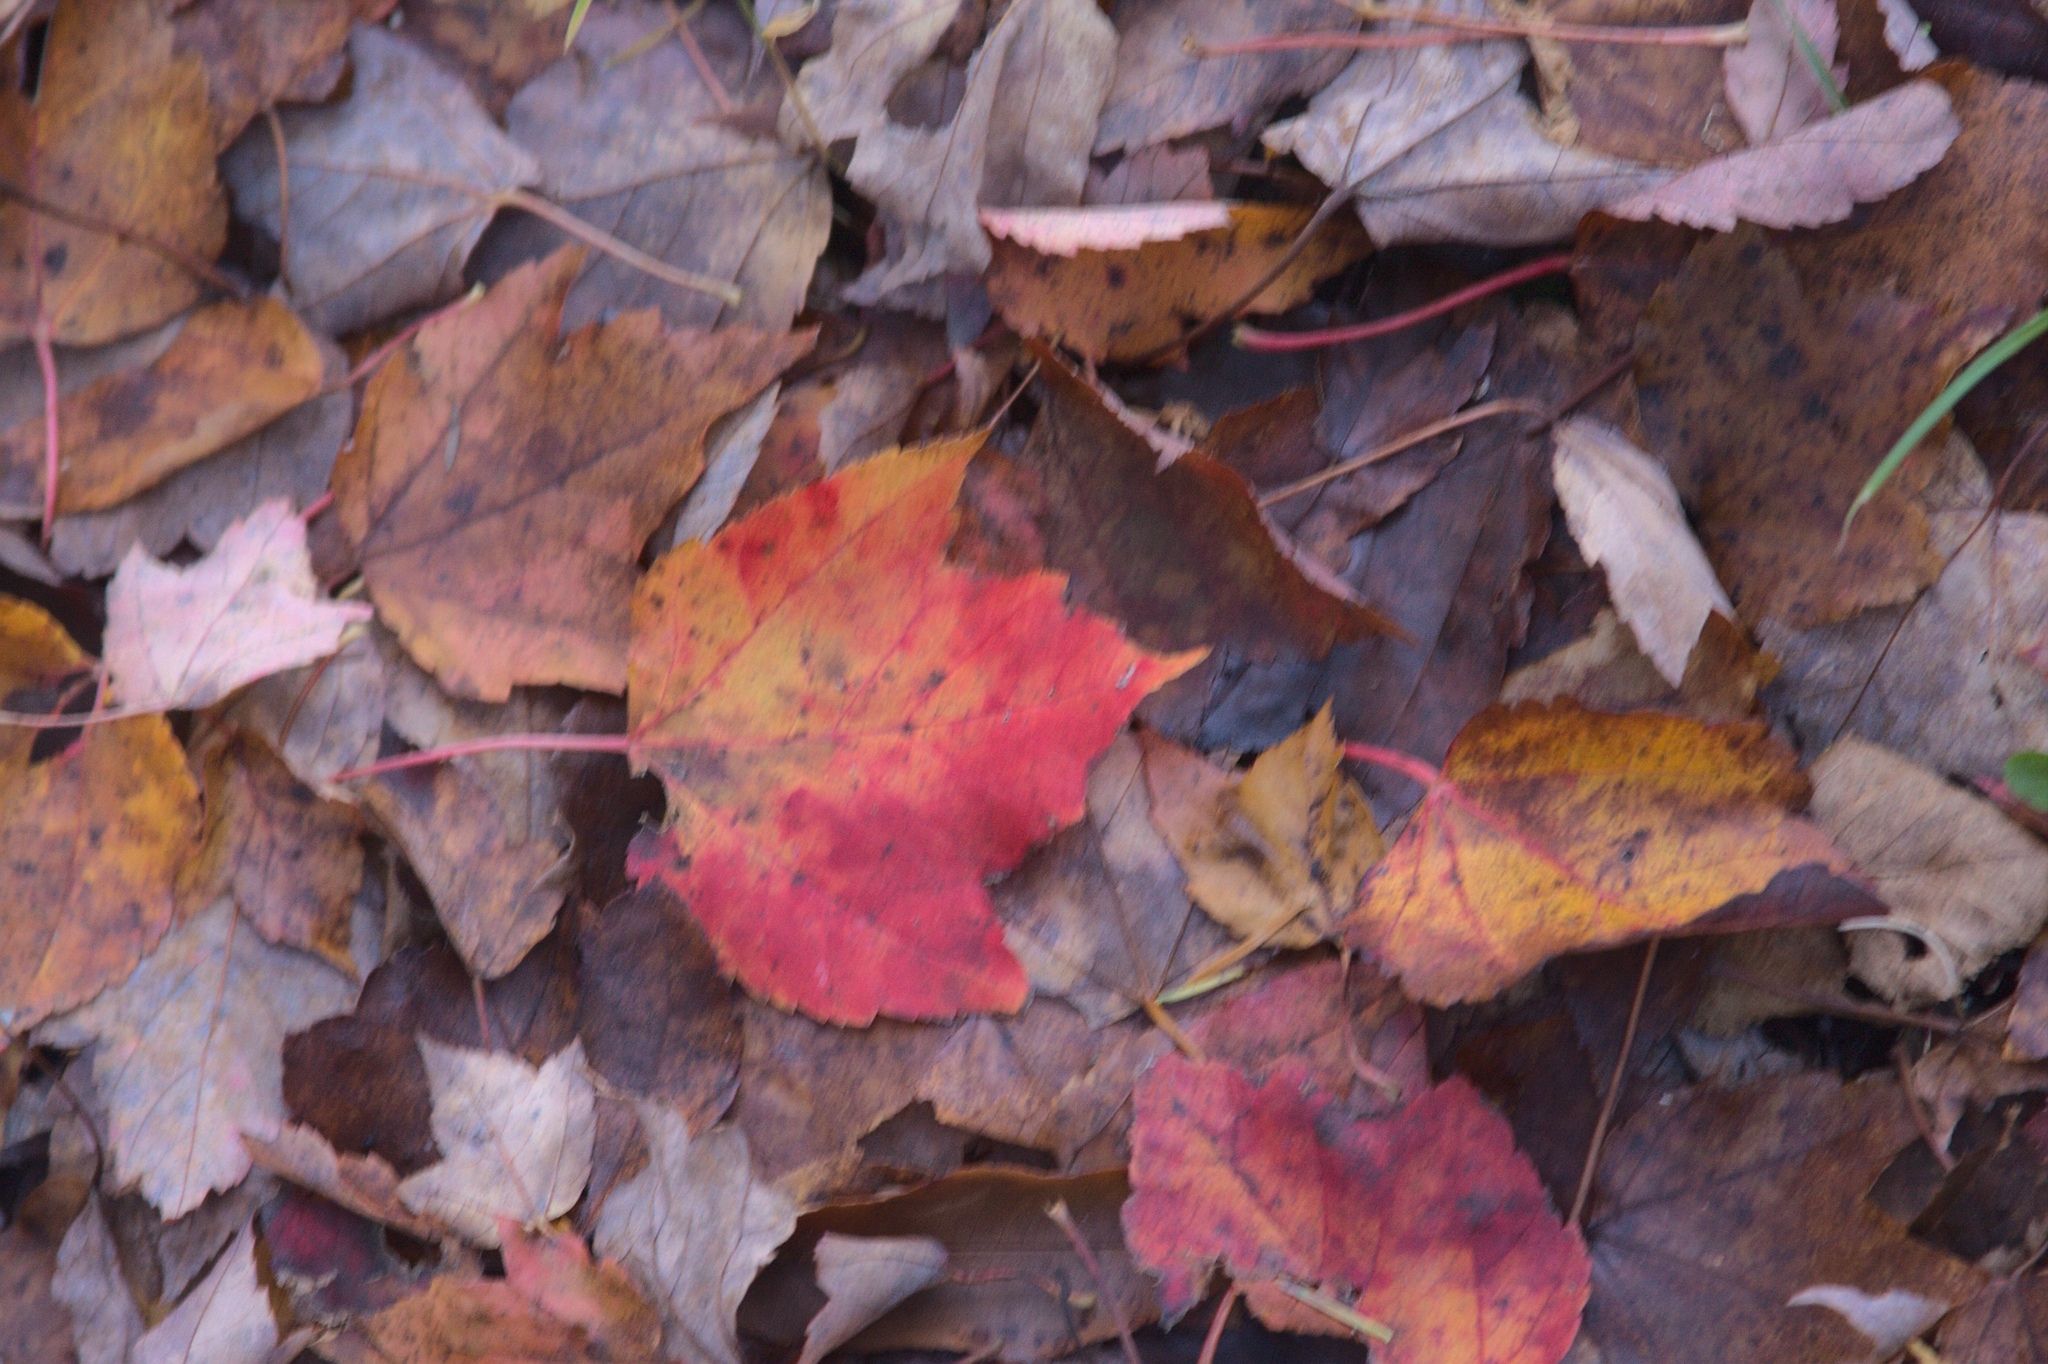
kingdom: Plantae
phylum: Tracheophyta
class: Magnoliopsida
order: Sapindales
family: Sapindaceae
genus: Acer
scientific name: Acer rubrum
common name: Red maple
